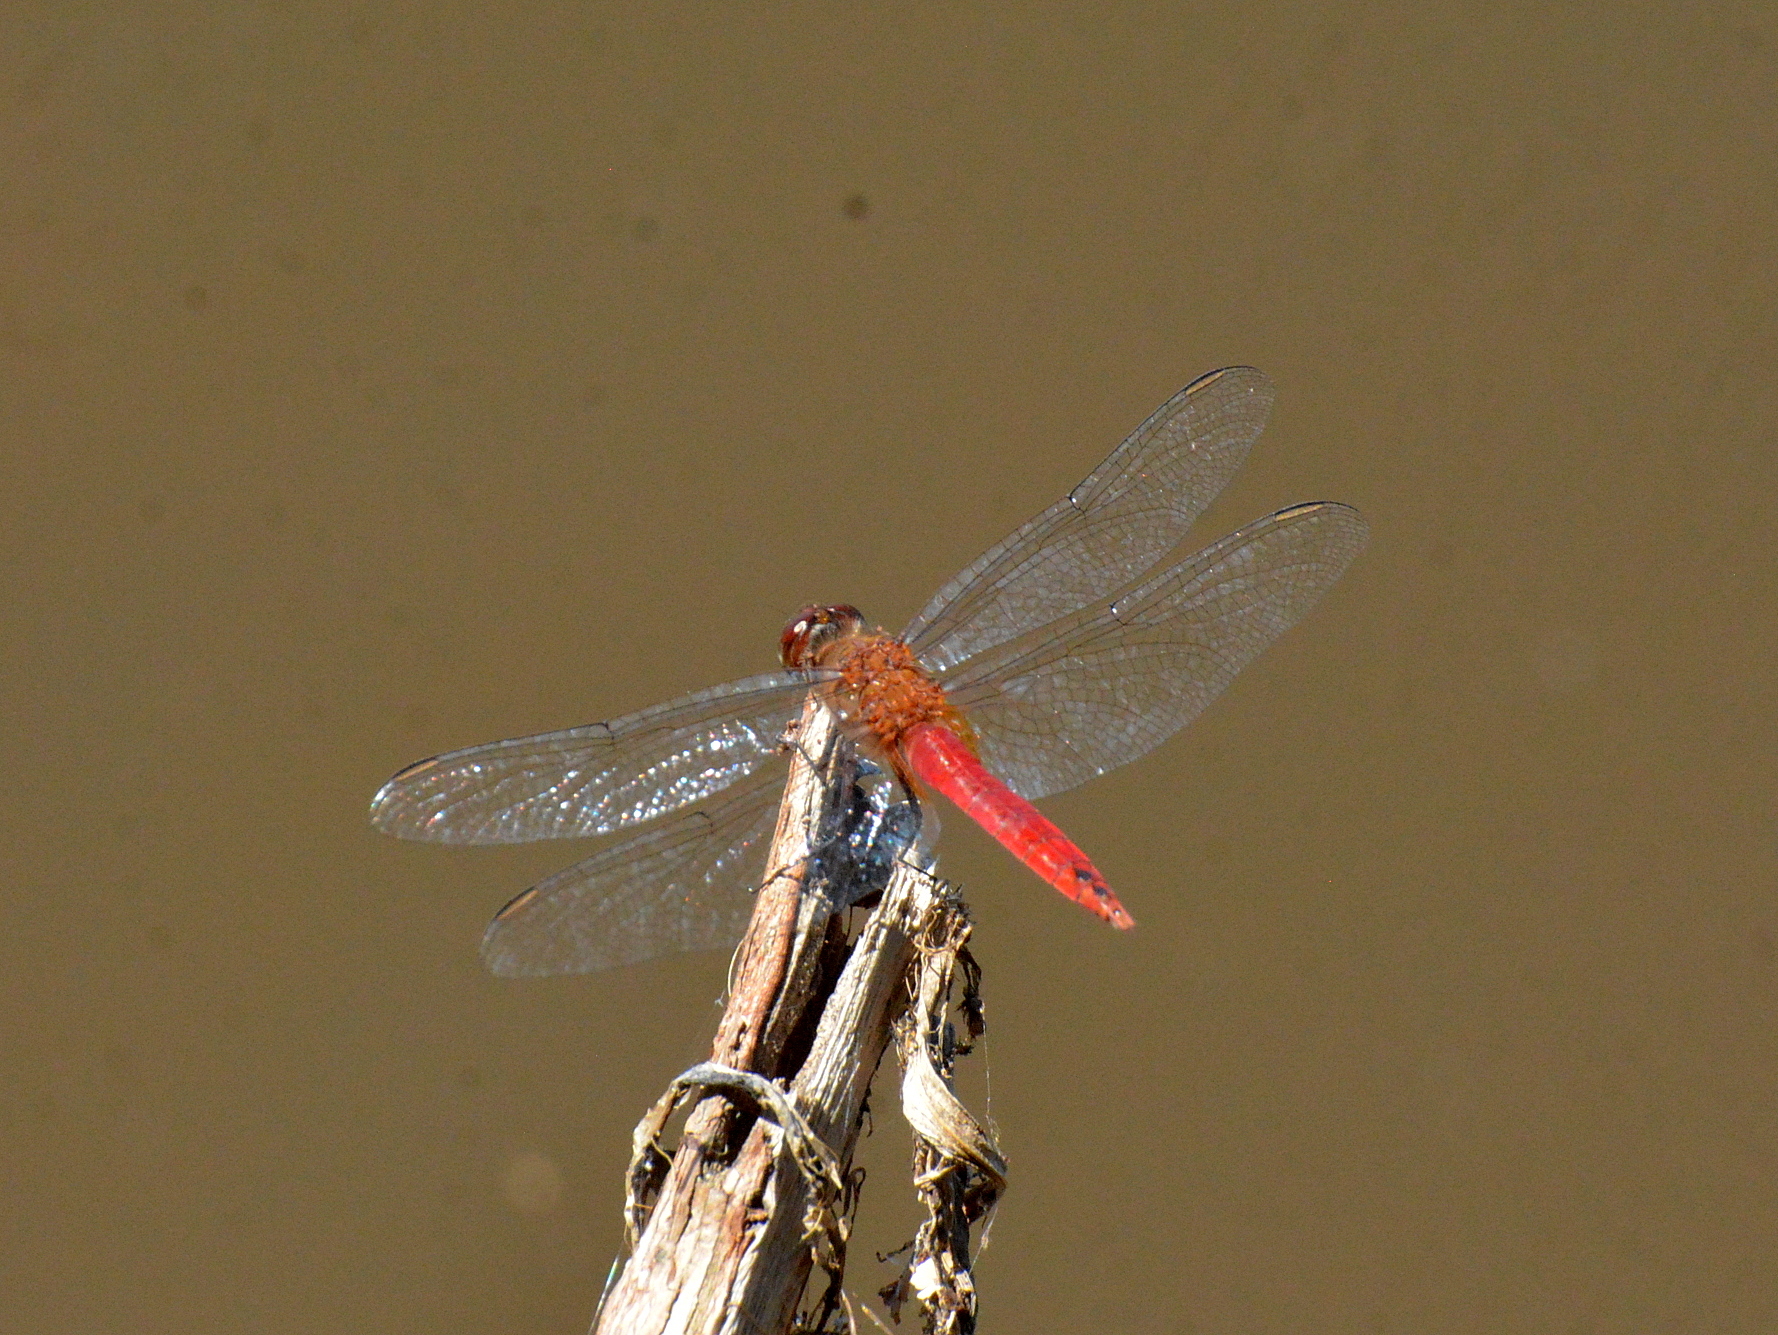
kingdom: Animalia
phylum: Arthropoda
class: Insecta
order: Odonata
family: Libellulidae
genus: Brachymesia
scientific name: Brachymesia furcata
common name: Red-taled pennant
